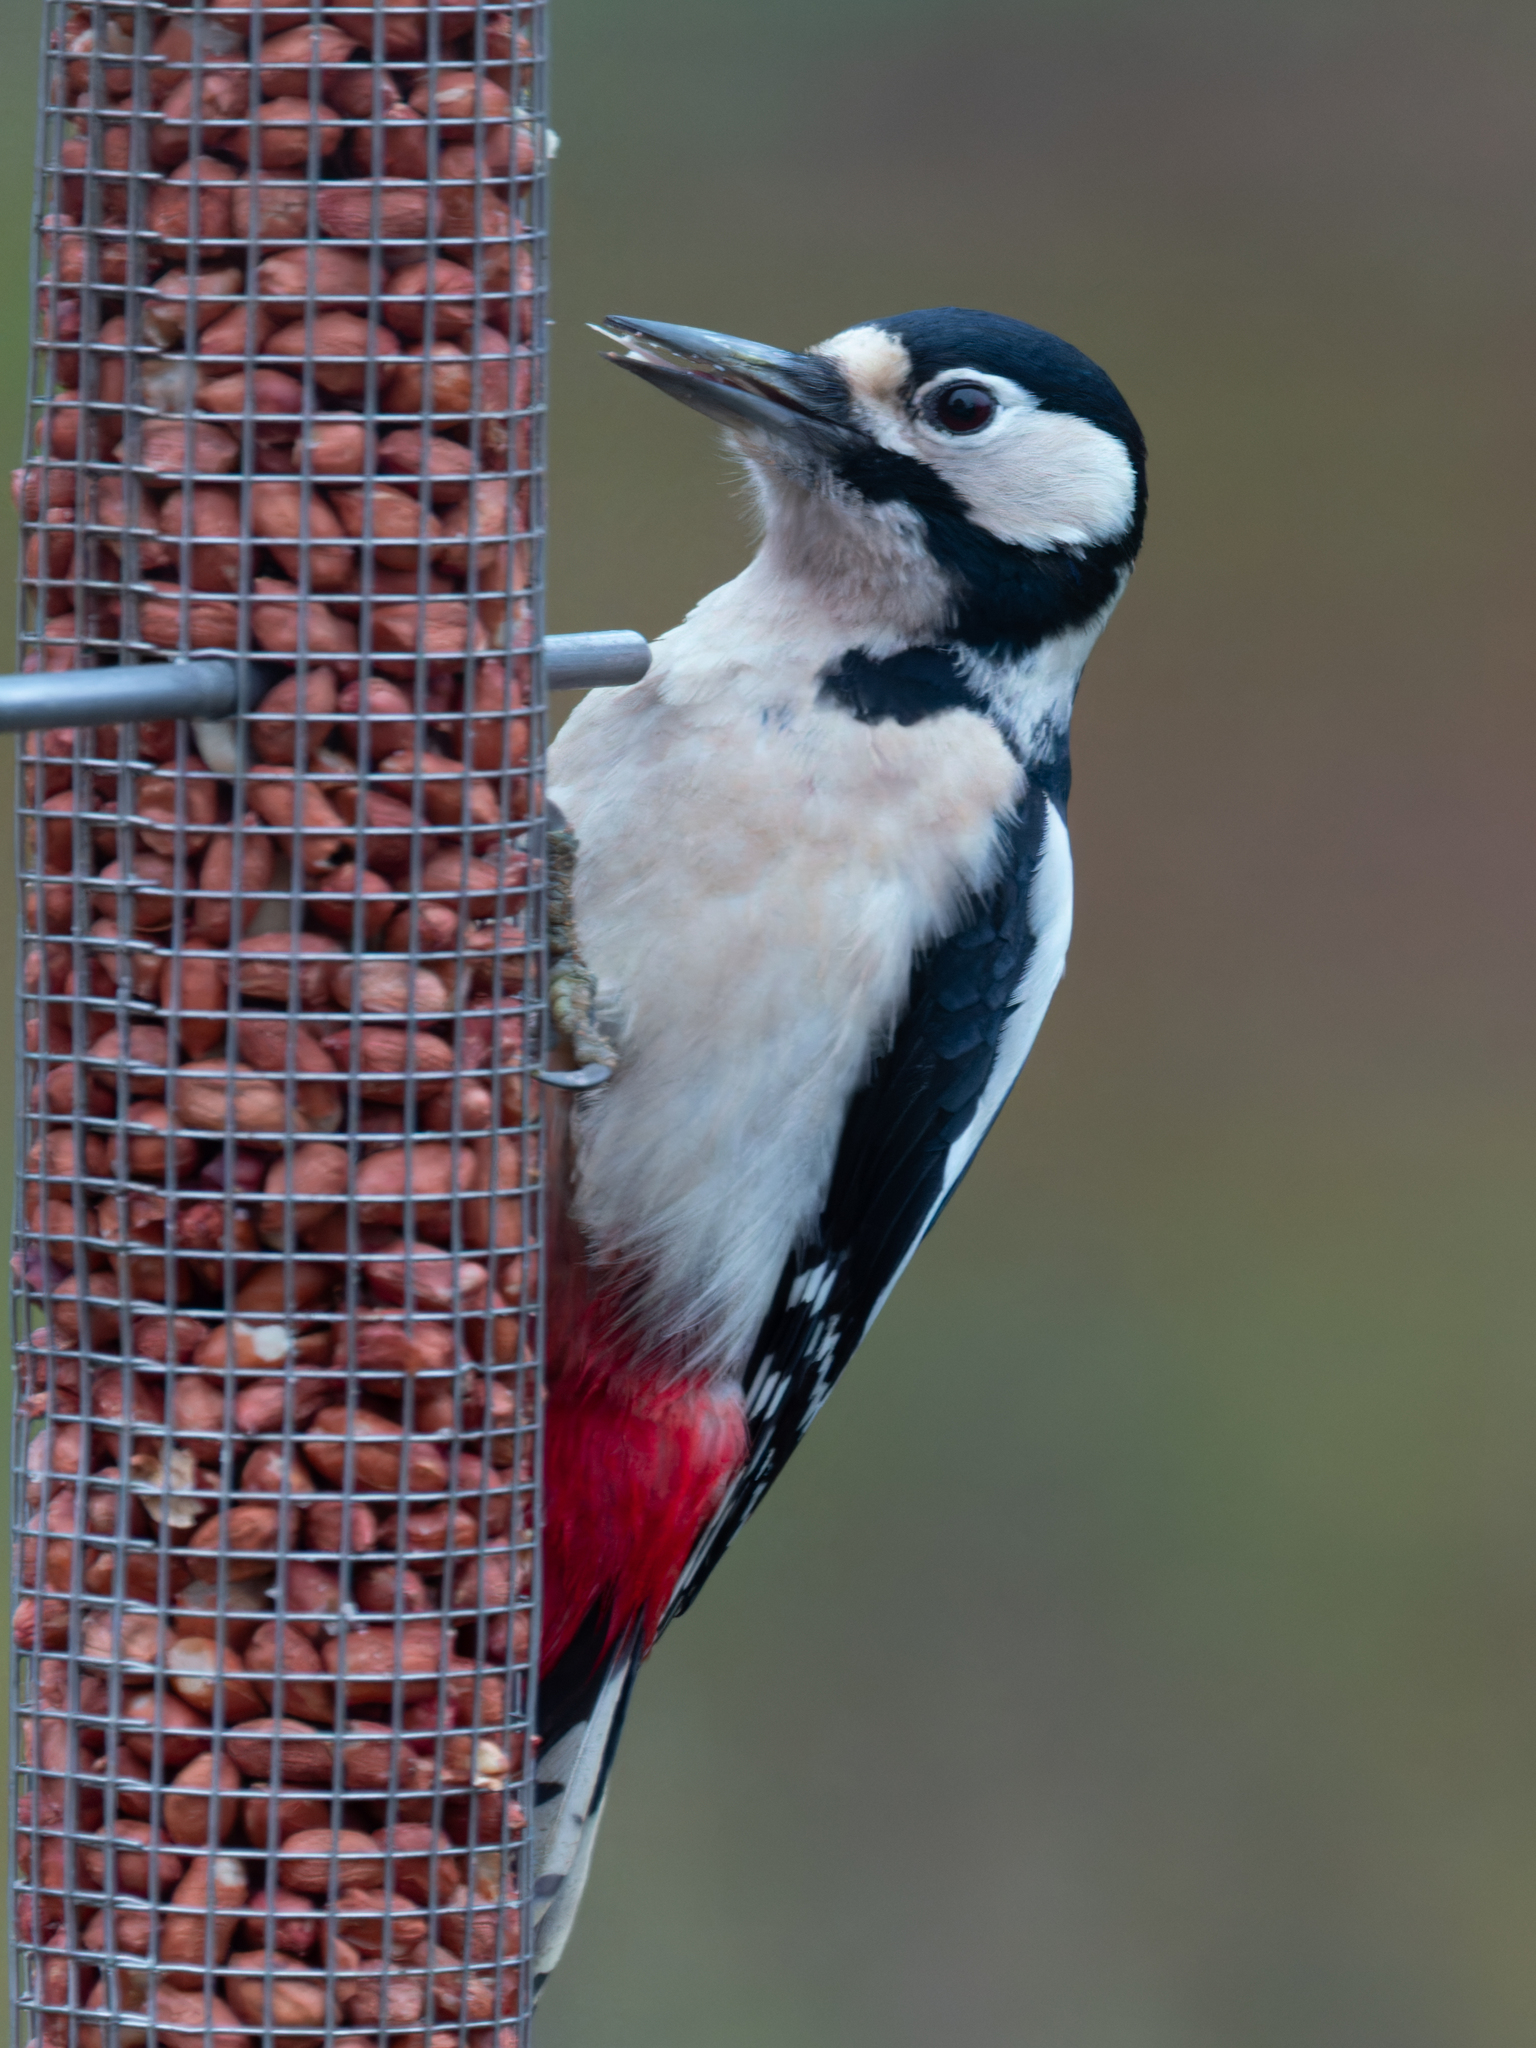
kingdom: Animalia
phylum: Chordata
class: Aves
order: Piciformes
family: Picidae
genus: Dendrocopos
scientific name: Dendrocopos major
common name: Great spotted woodpecker
